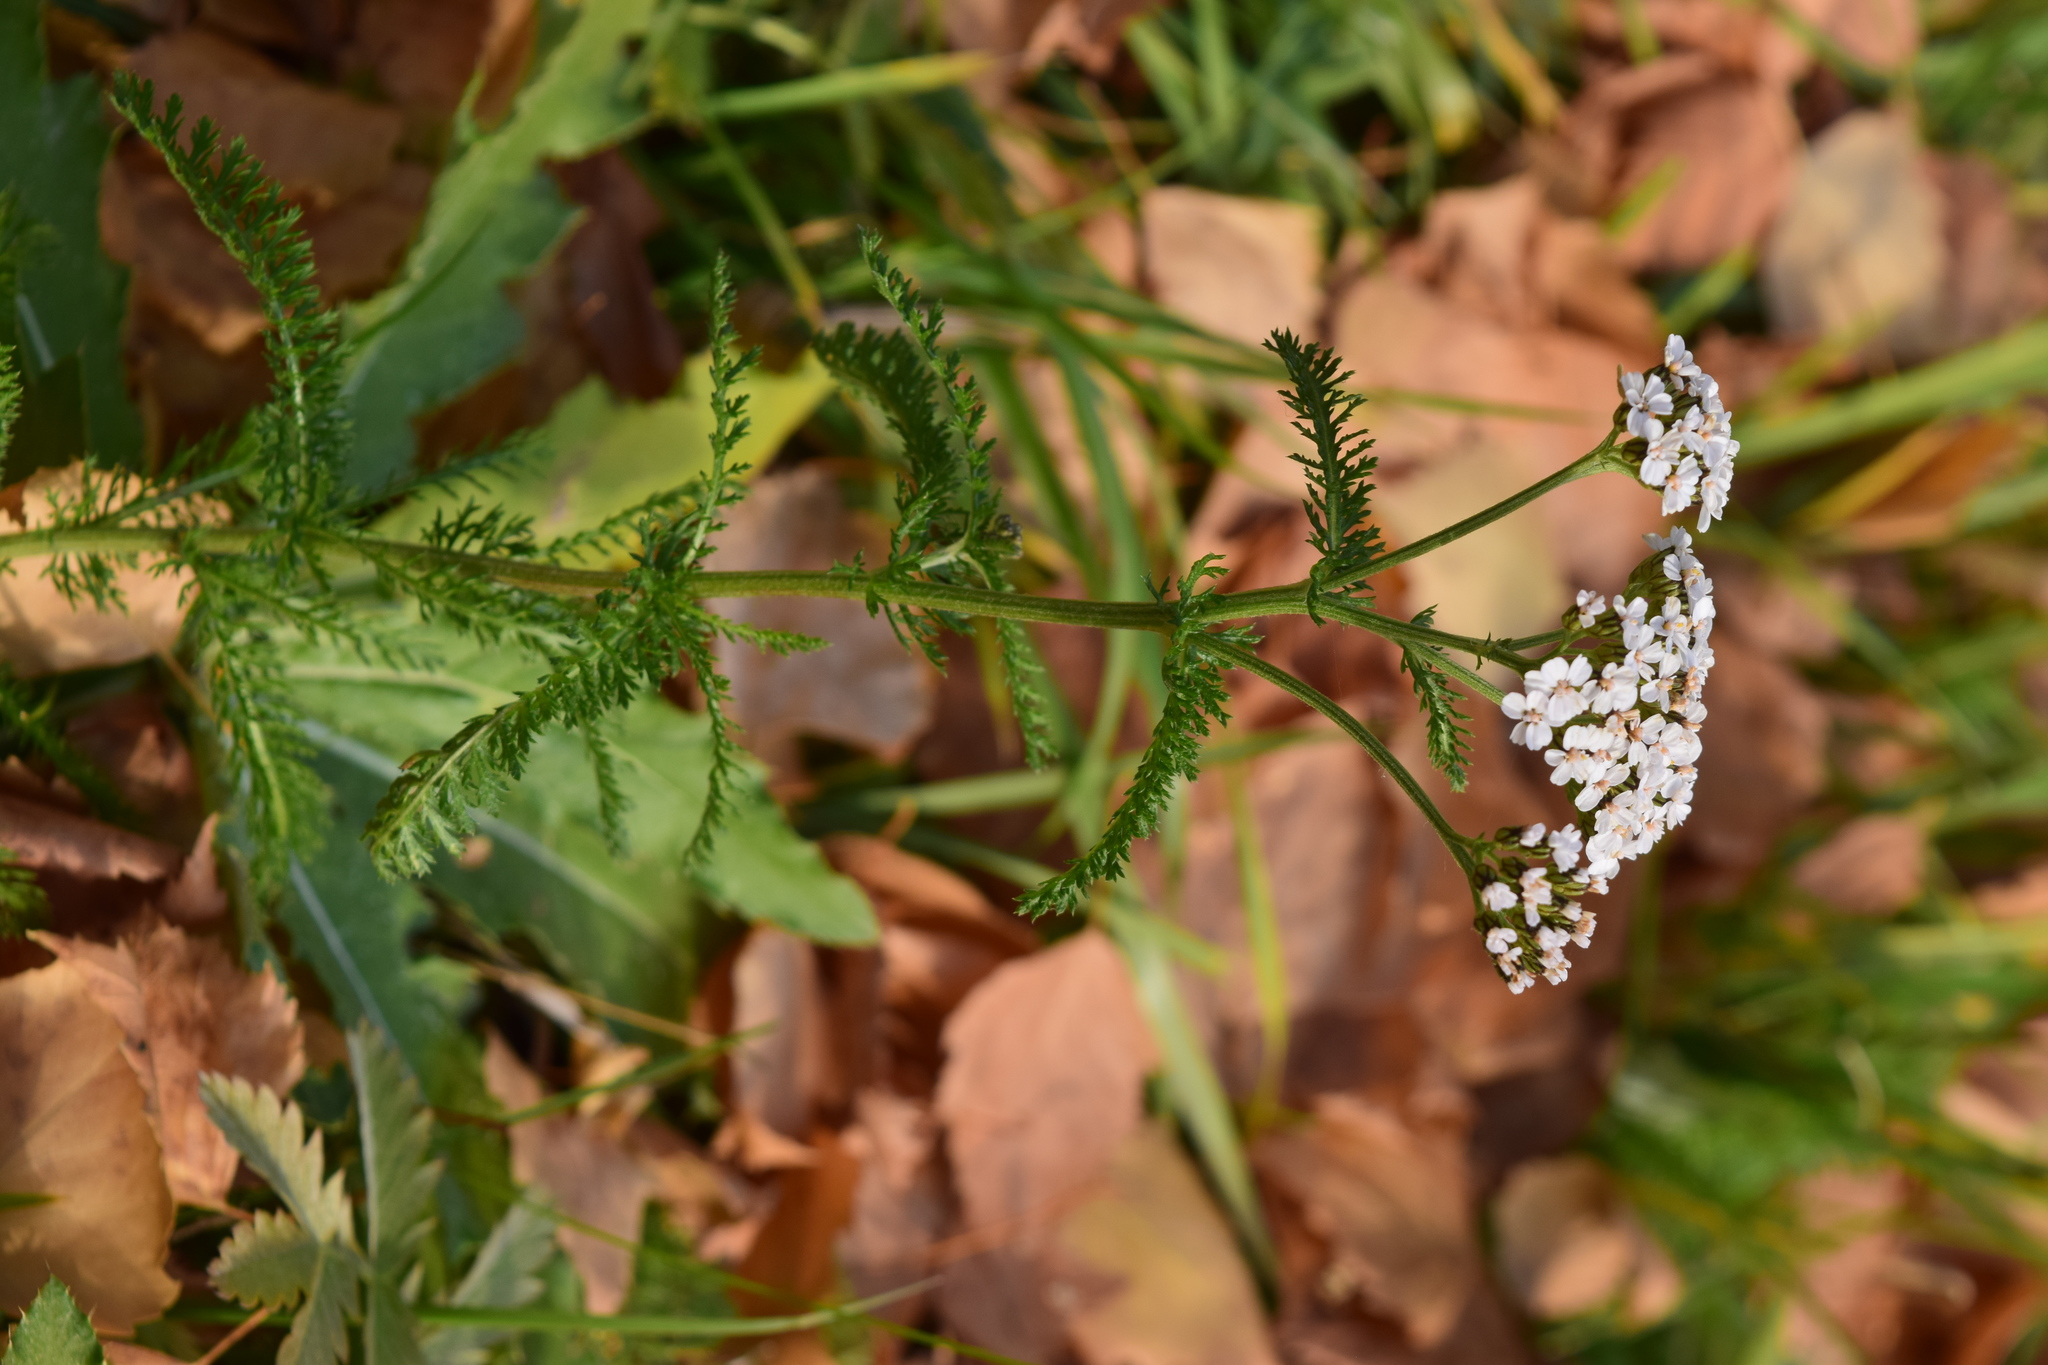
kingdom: Plantae
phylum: Tracheophyta
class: Magnoliopsida
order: Asterales
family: Asteraceae
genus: Achillea
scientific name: Achillea millefolium
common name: Yarrow
